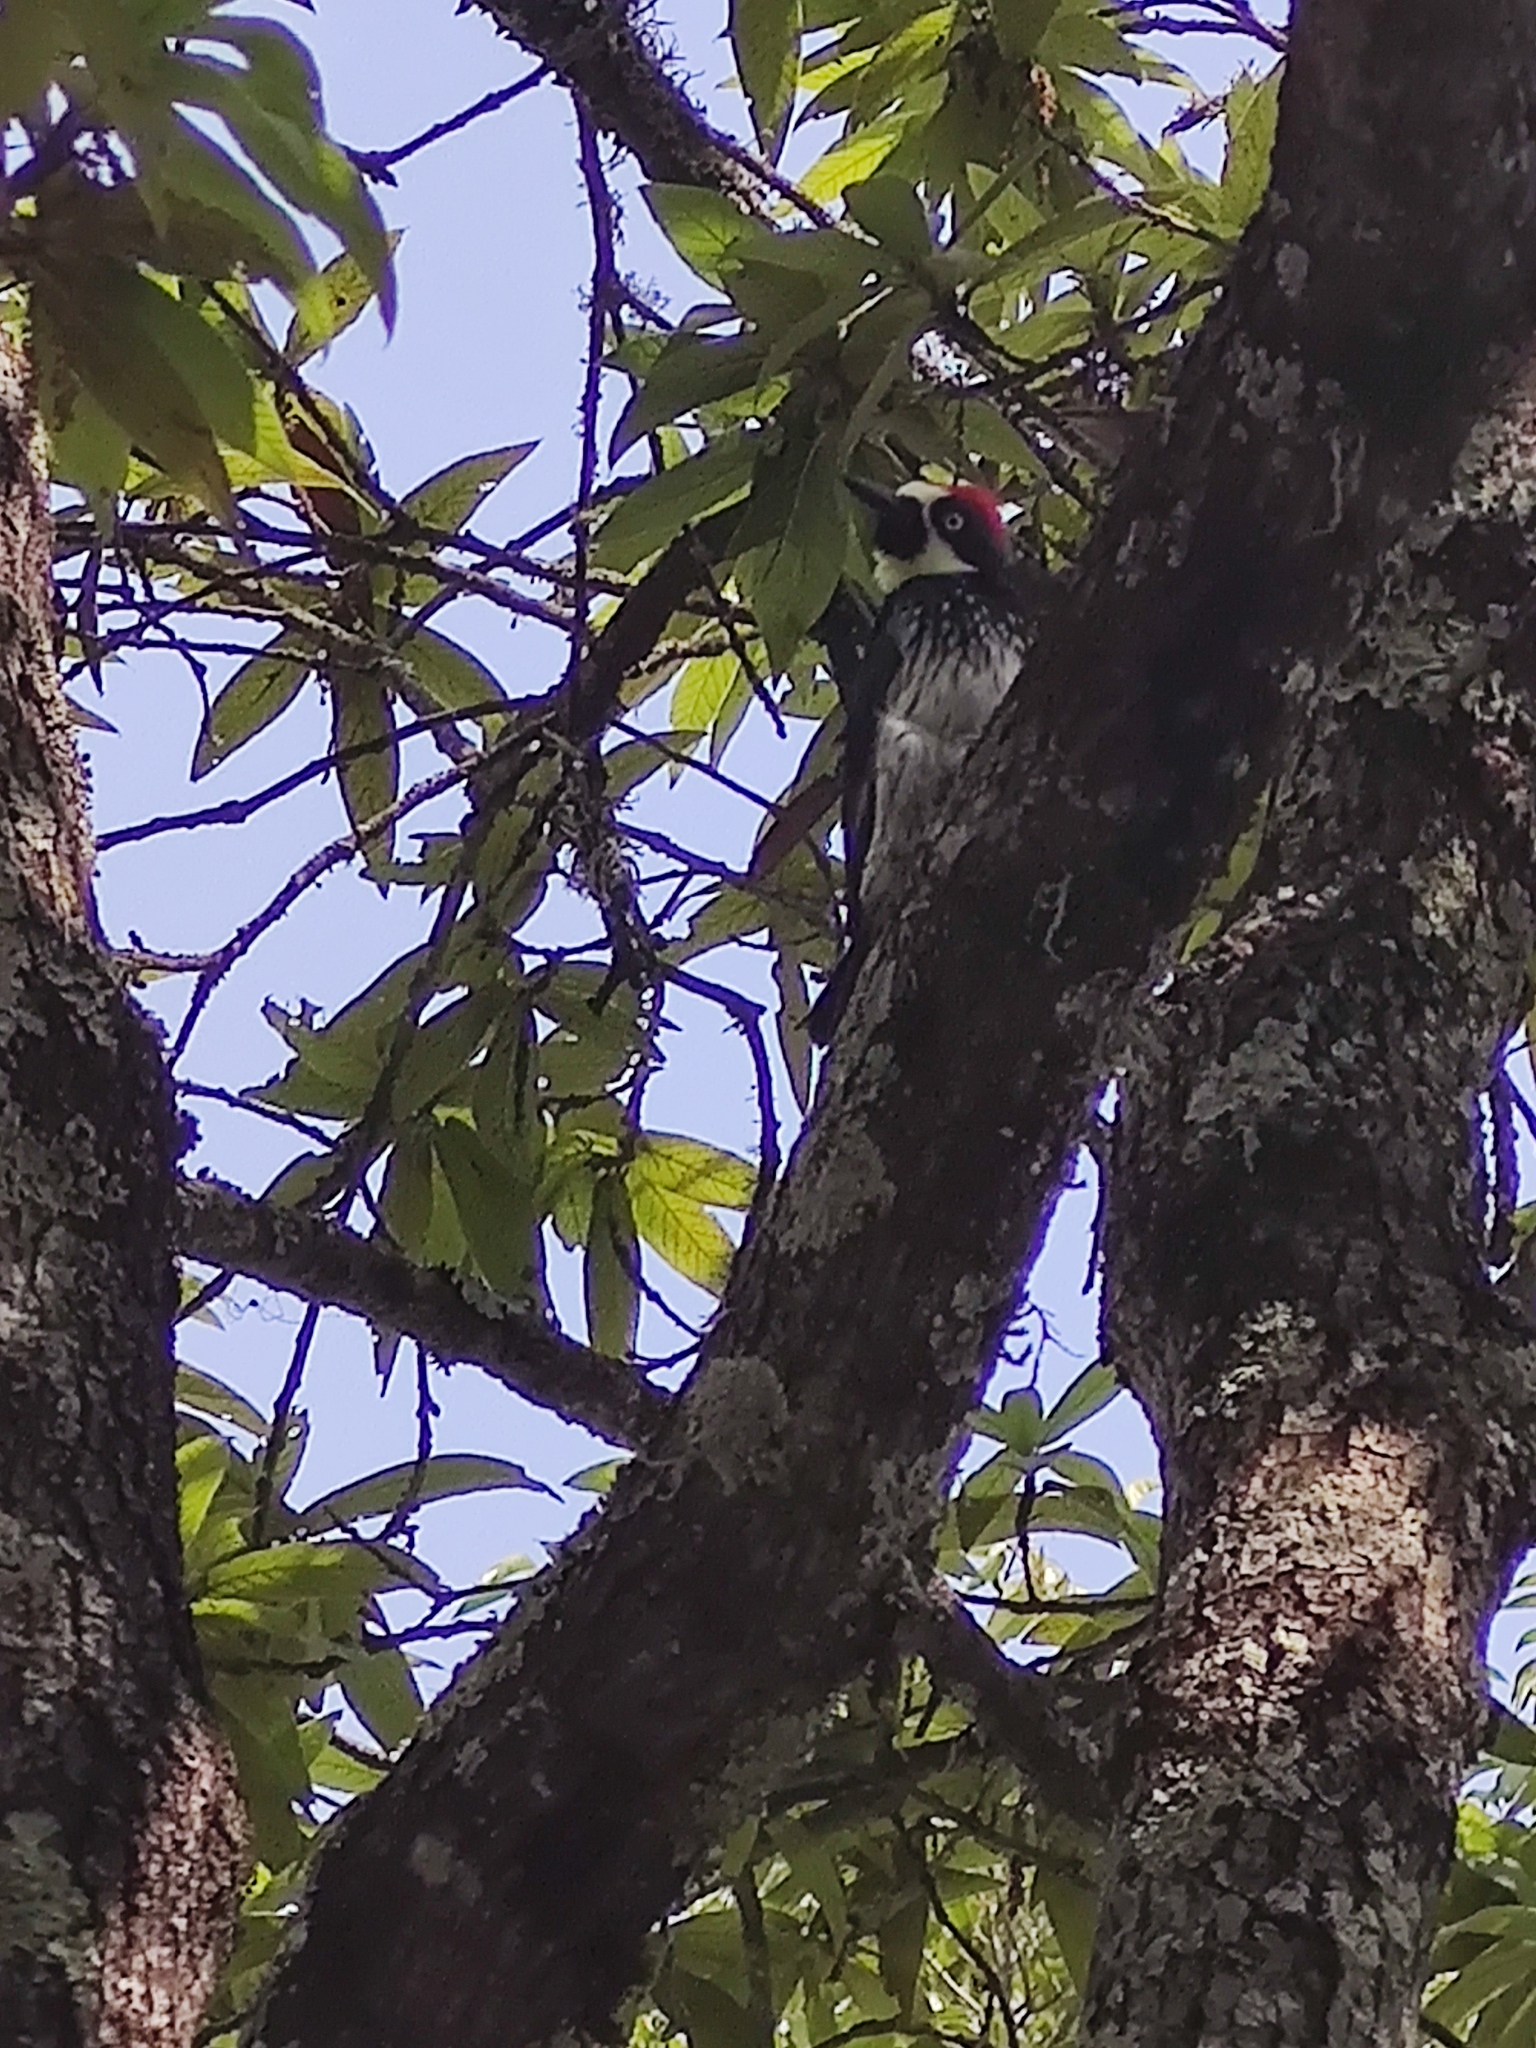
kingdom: Animalia
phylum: Chordata
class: Aves
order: Piciformes
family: Picidae
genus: Melanerpes
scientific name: Melanerpes formicivorus
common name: Acorn woodpecker
